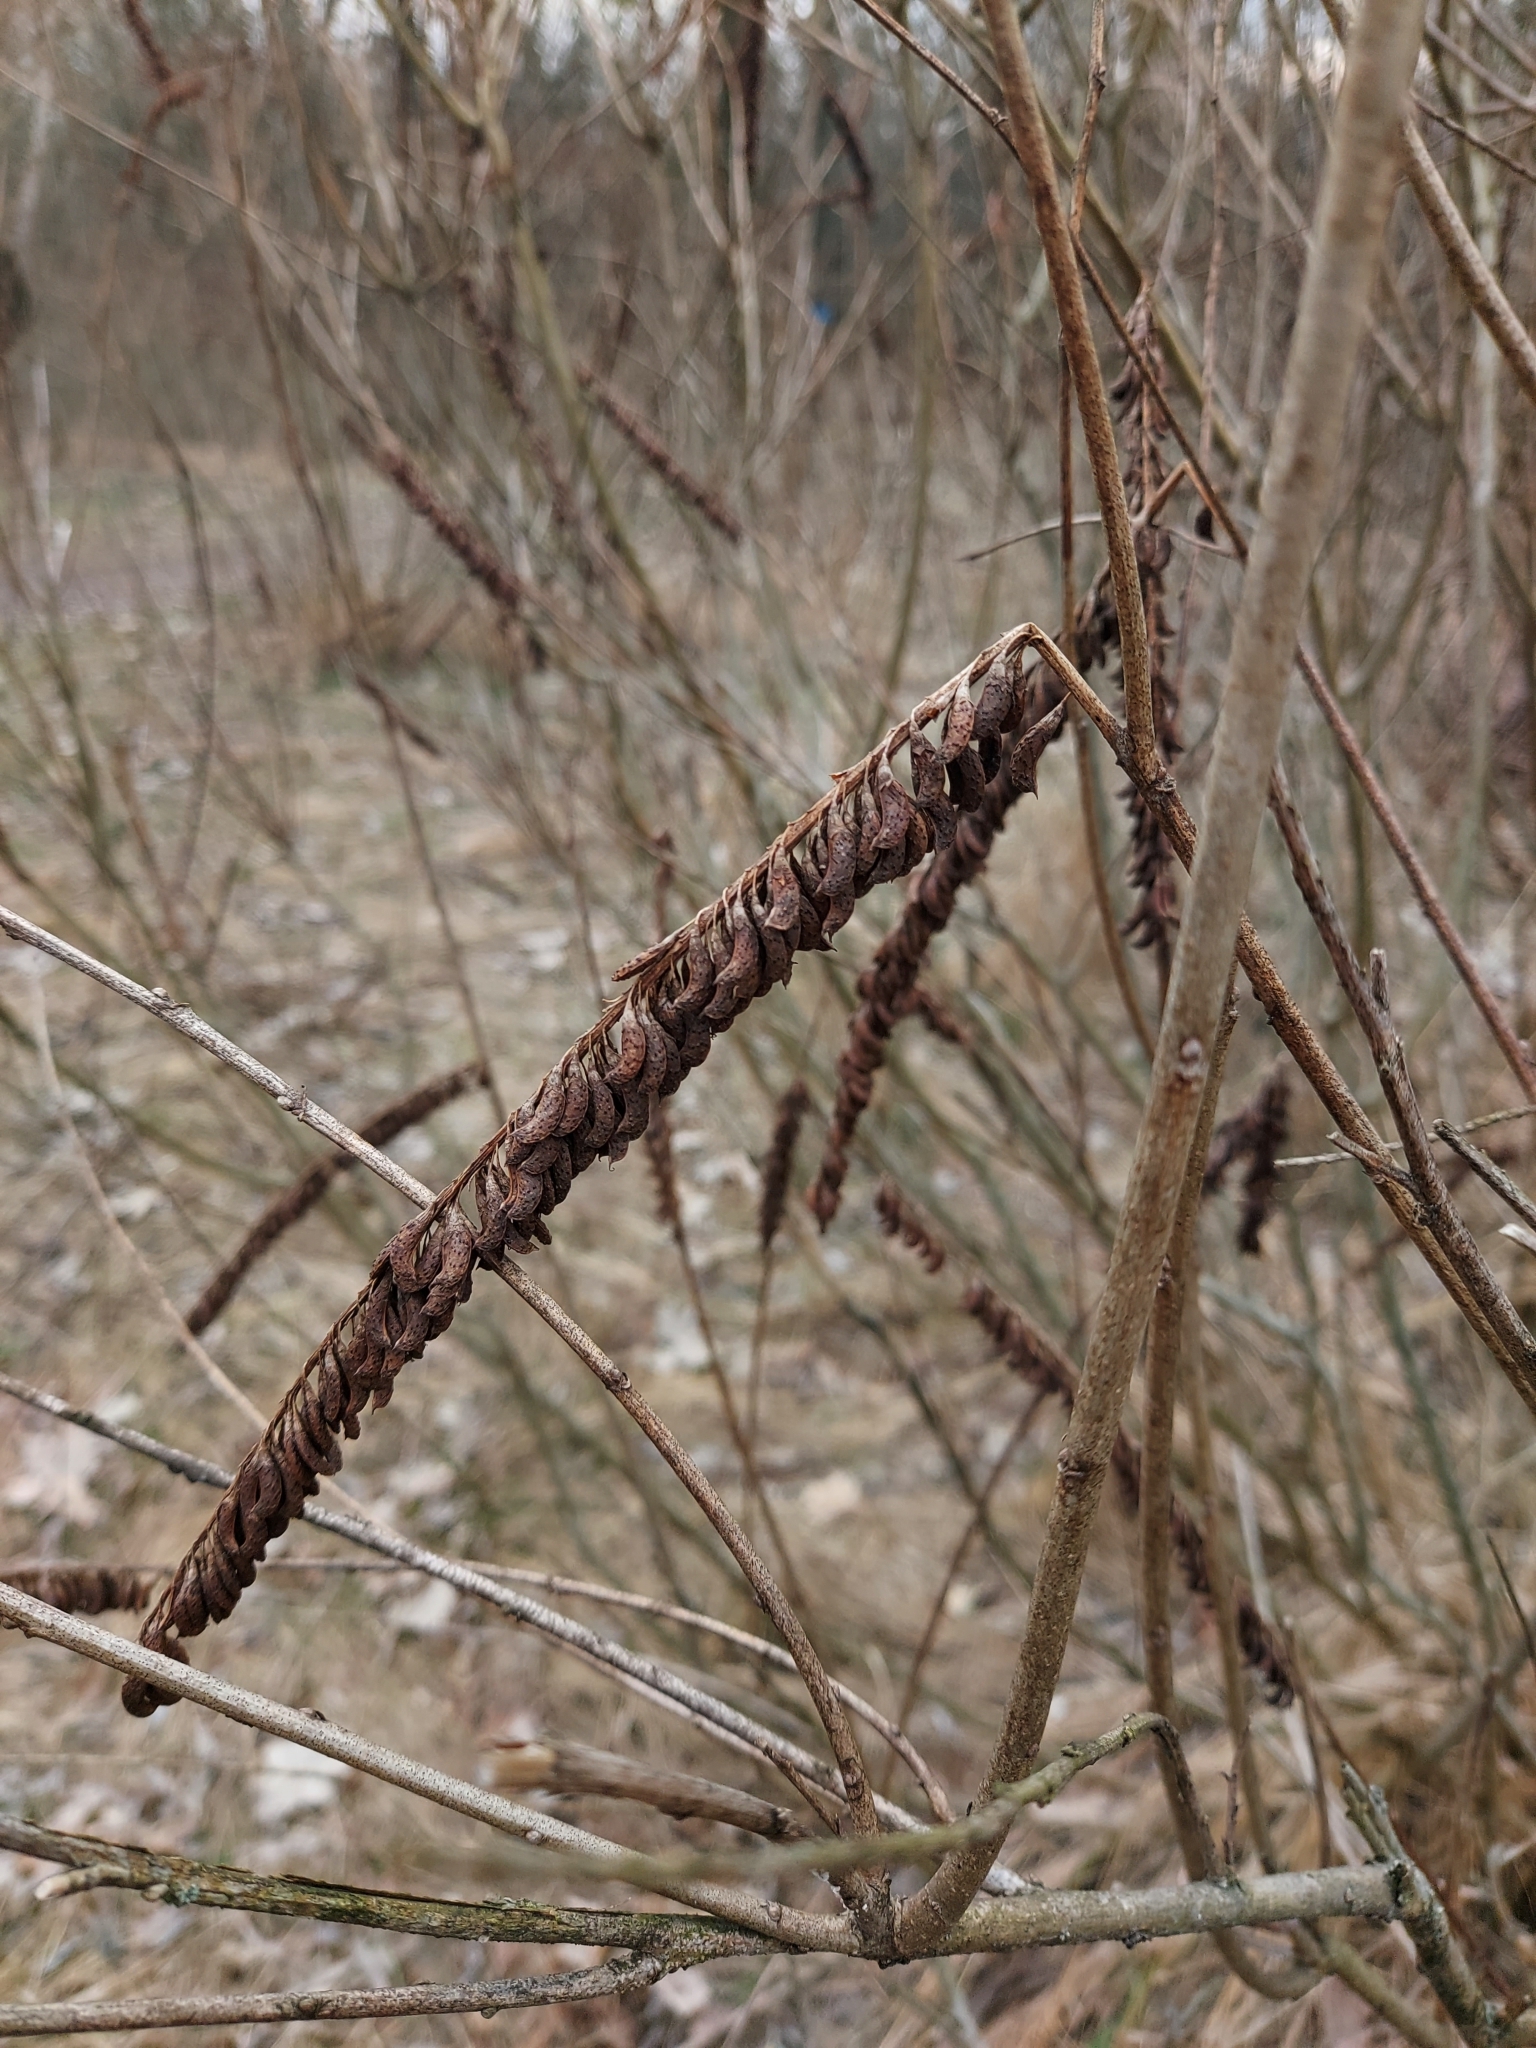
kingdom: Plantae
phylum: Tracheophyta
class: Magnoliopsida
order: Fabales
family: Fabaceae
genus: Amorpha
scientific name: Amorpha fruticosa
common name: False indigo
